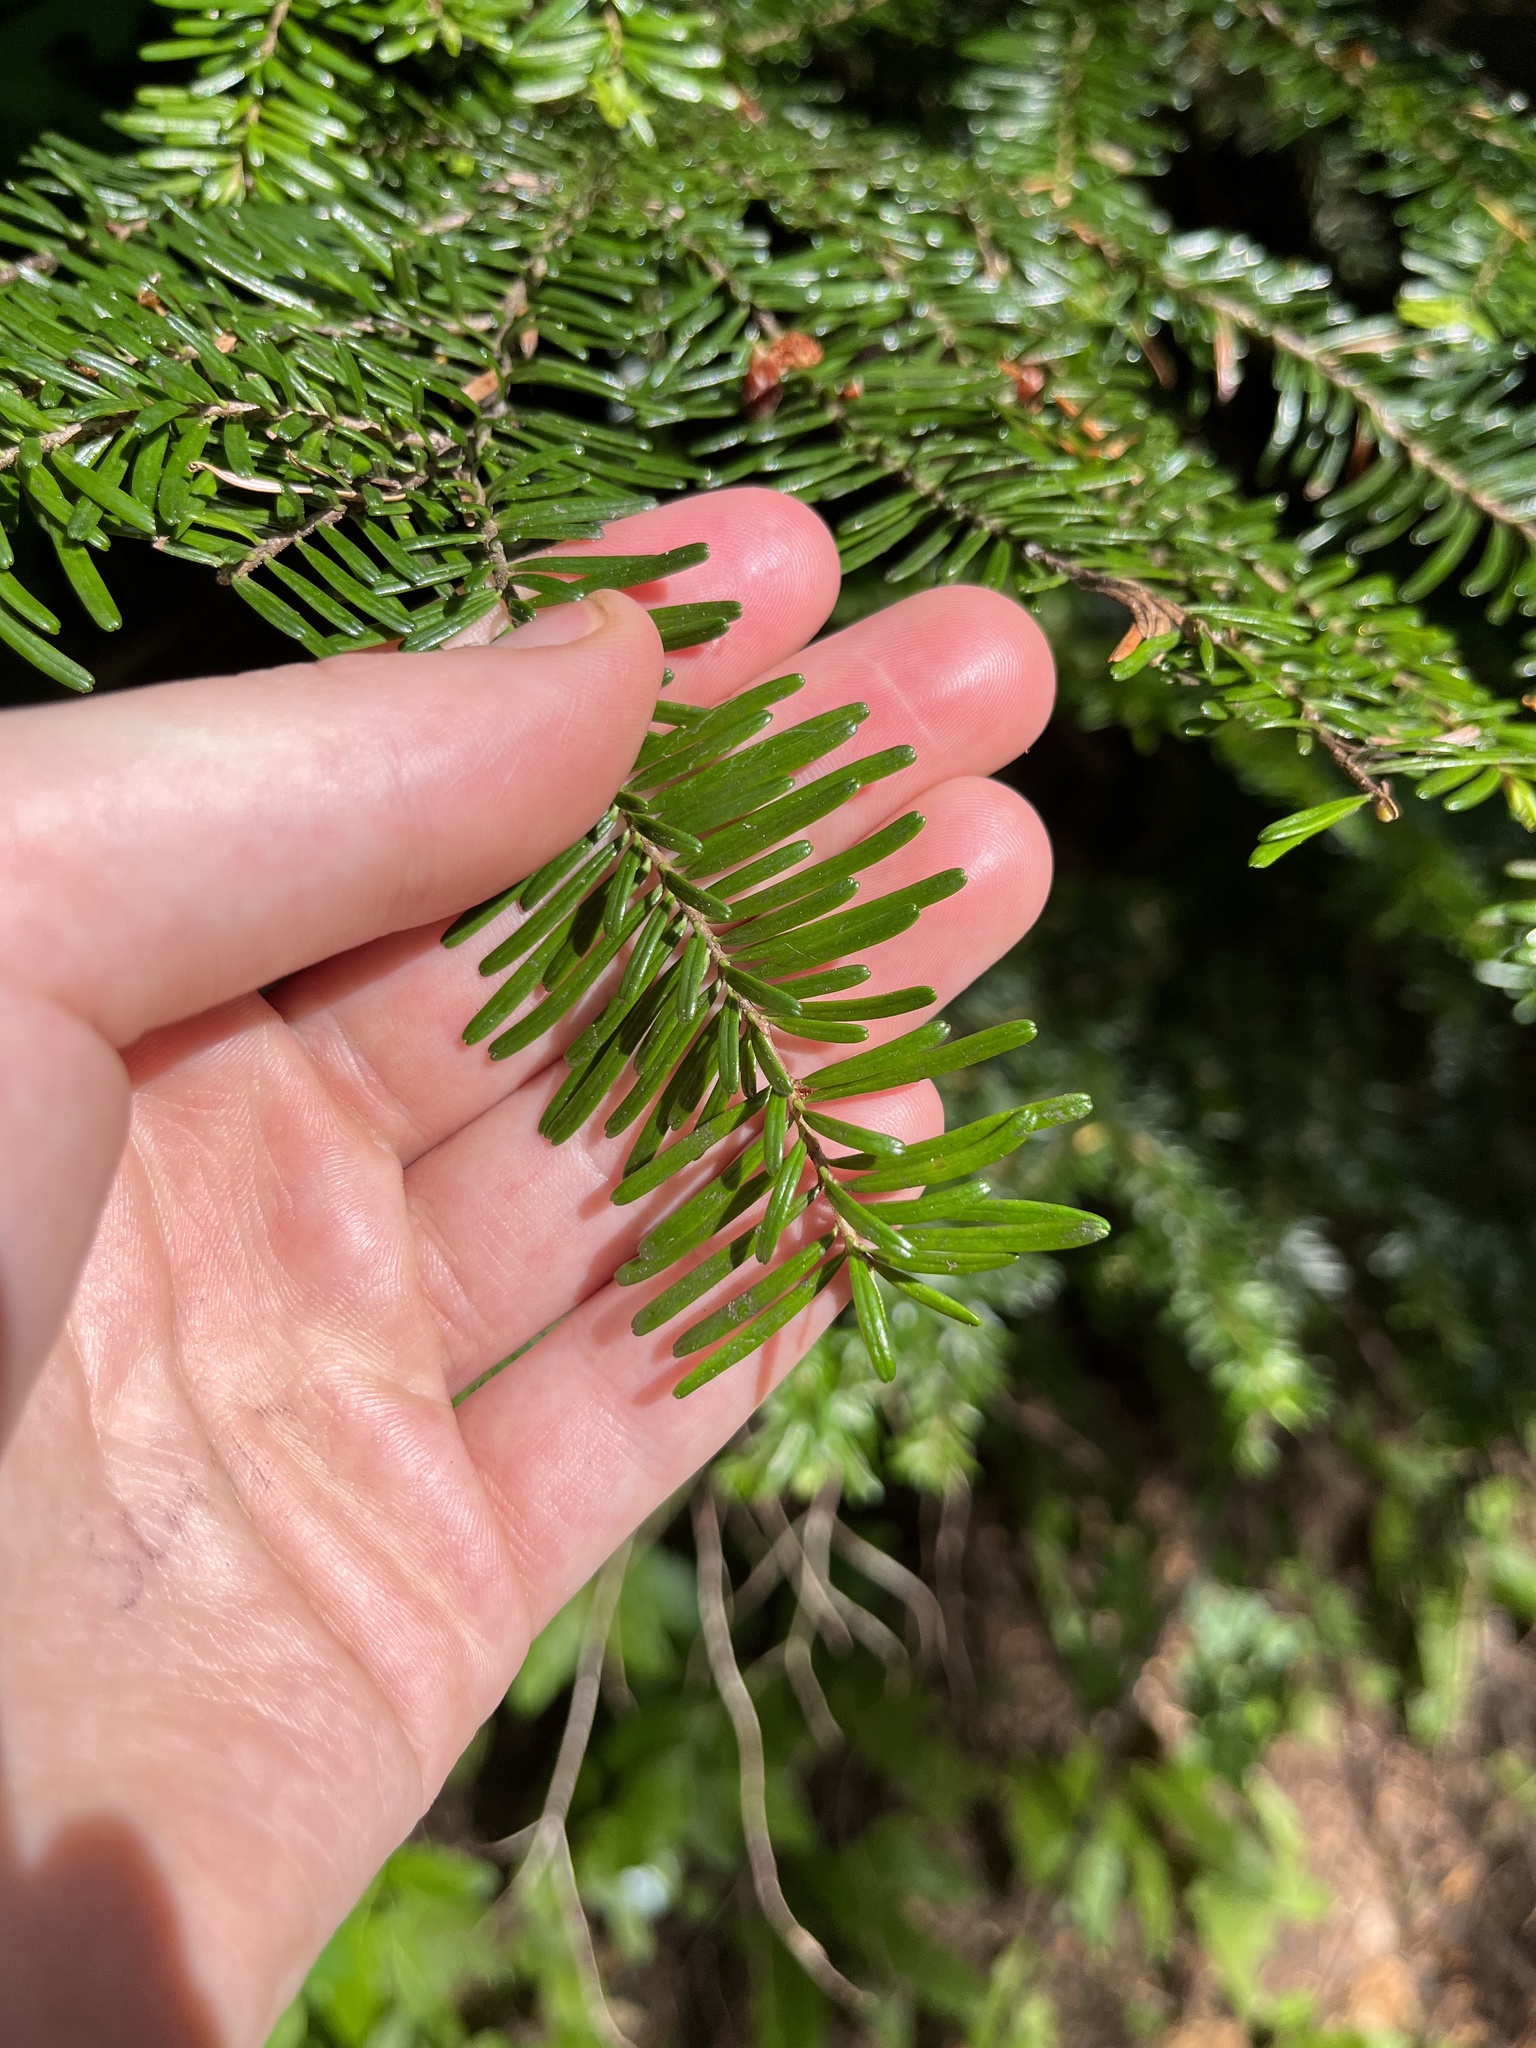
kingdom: Plantae
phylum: Tracheophyta
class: Pinopsida
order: Pinales
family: Pinaceae
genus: Abies
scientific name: Abies amabilis
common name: Pacific silver fir
